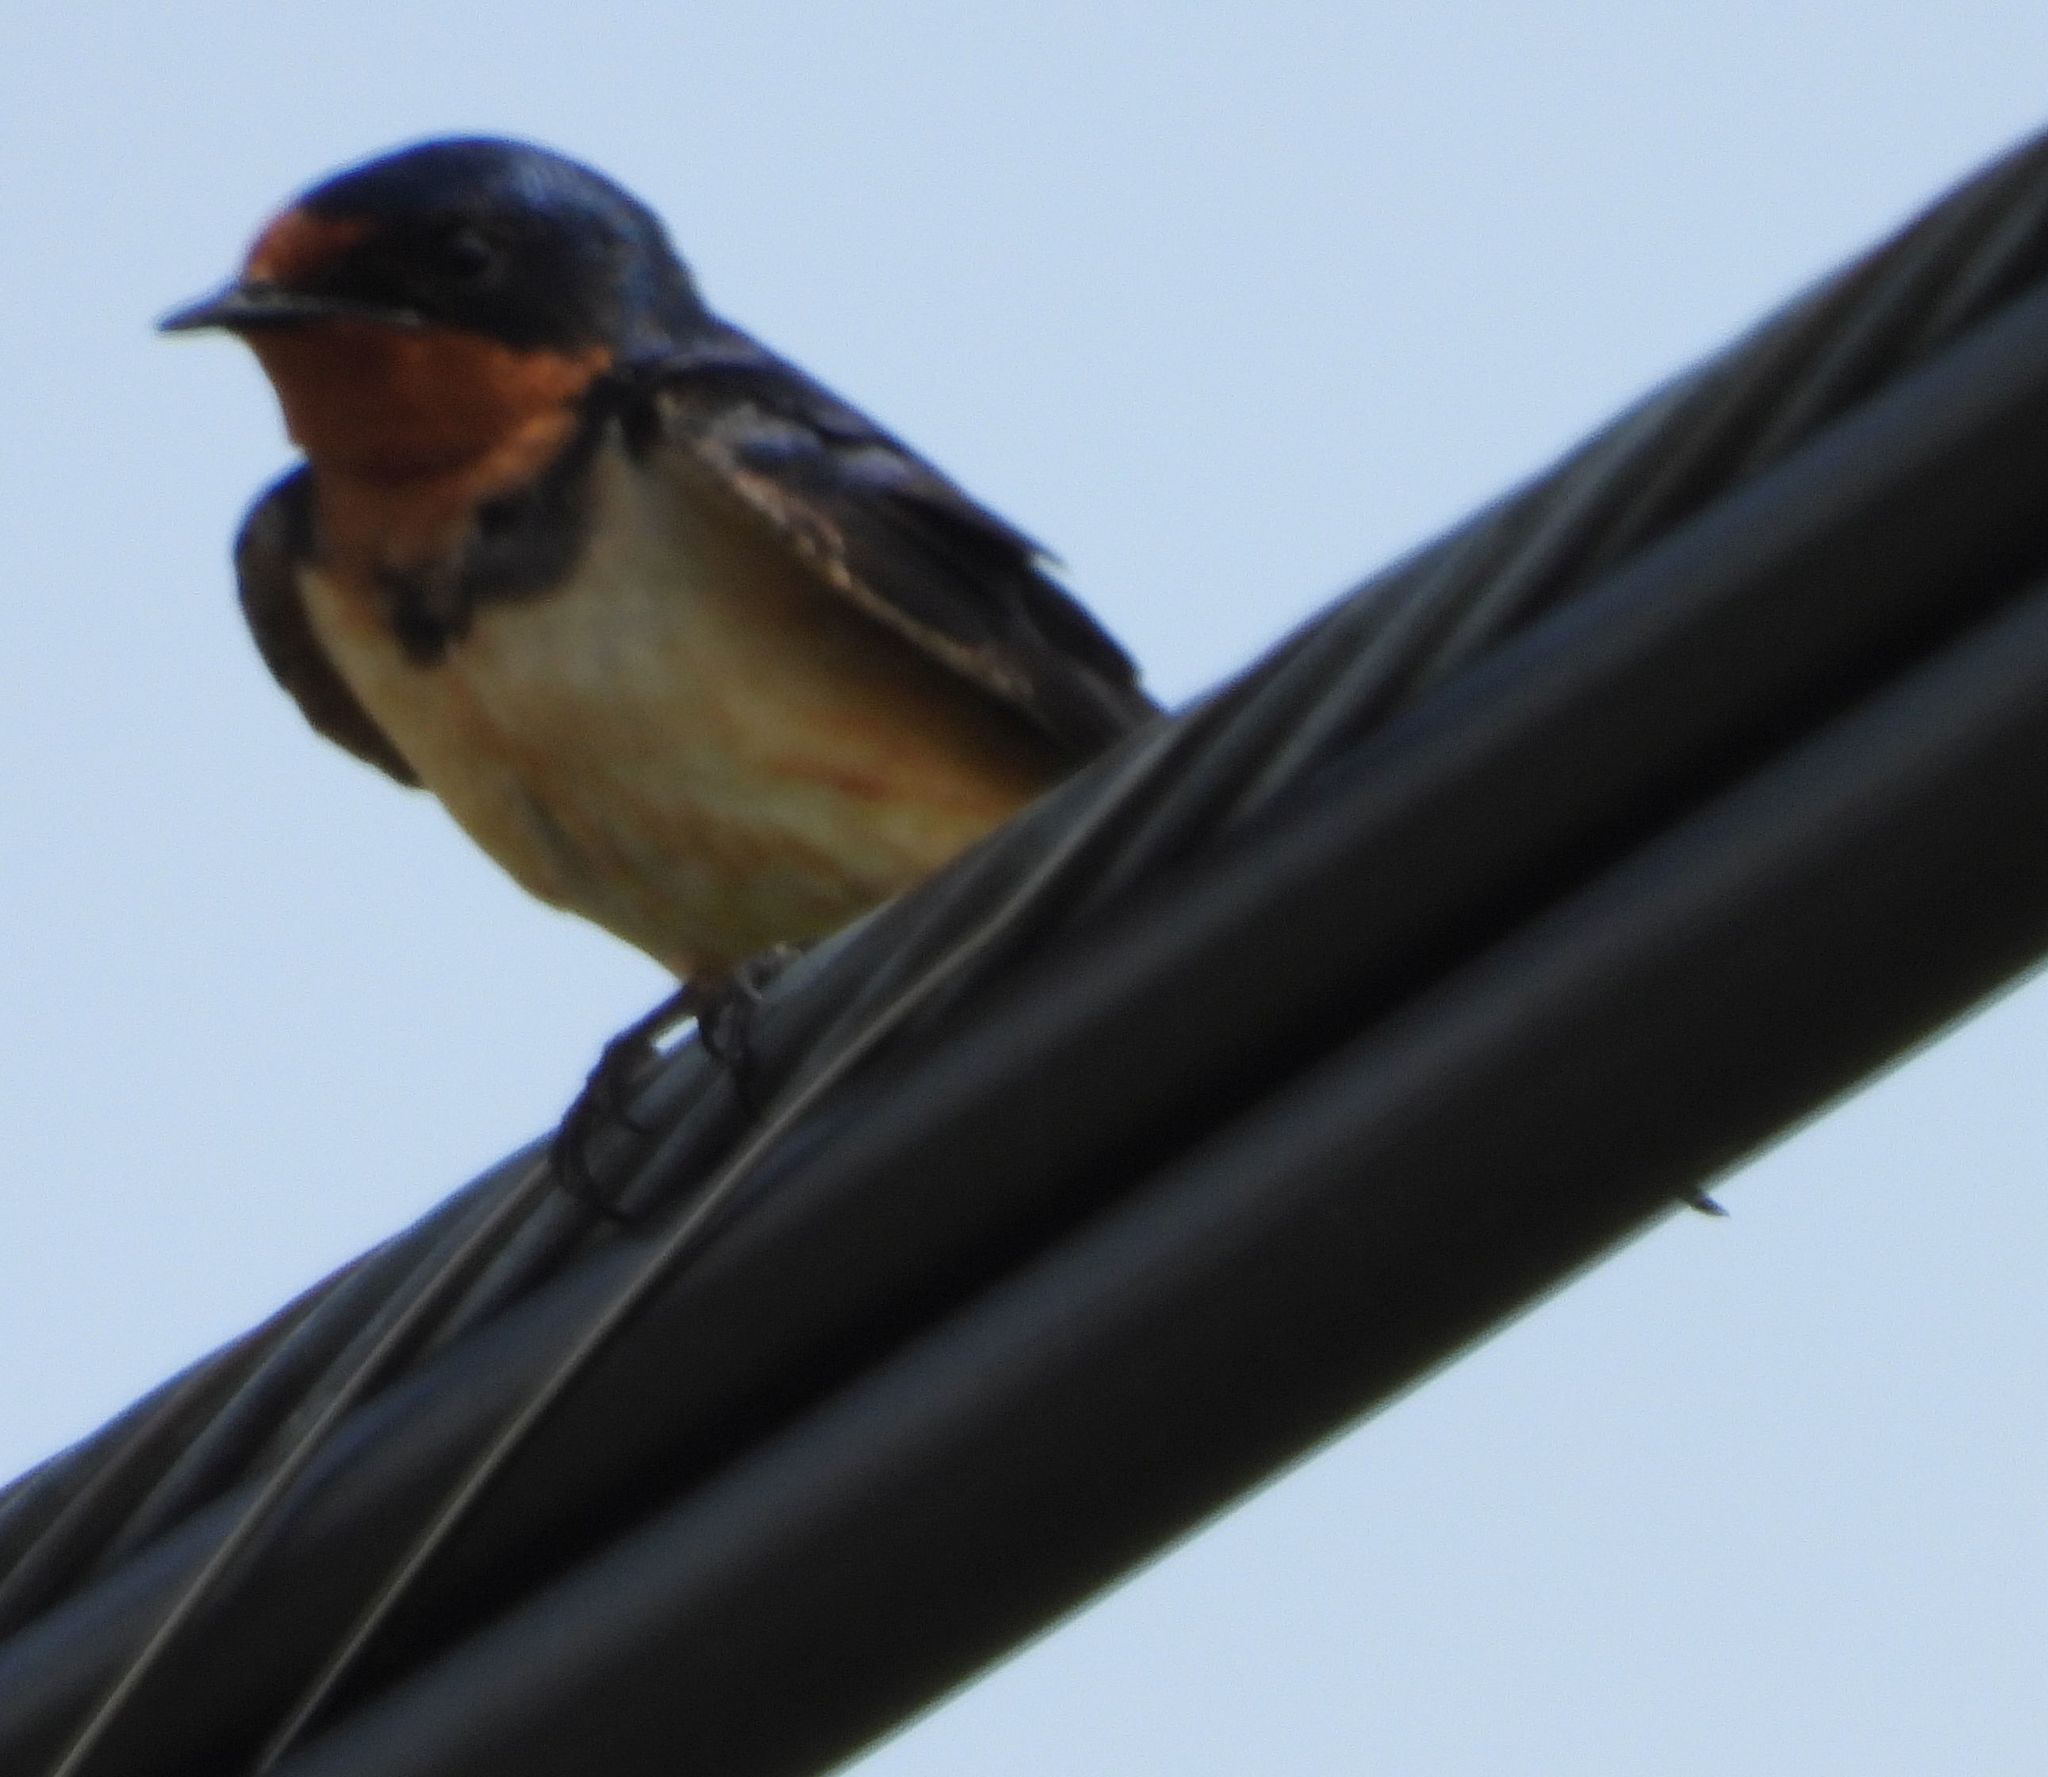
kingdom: Animalia
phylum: Chordata
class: Aves
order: Passeriformes
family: Hirundinidae
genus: Hirundo
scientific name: Hirundo rustica
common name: Barn swallow
